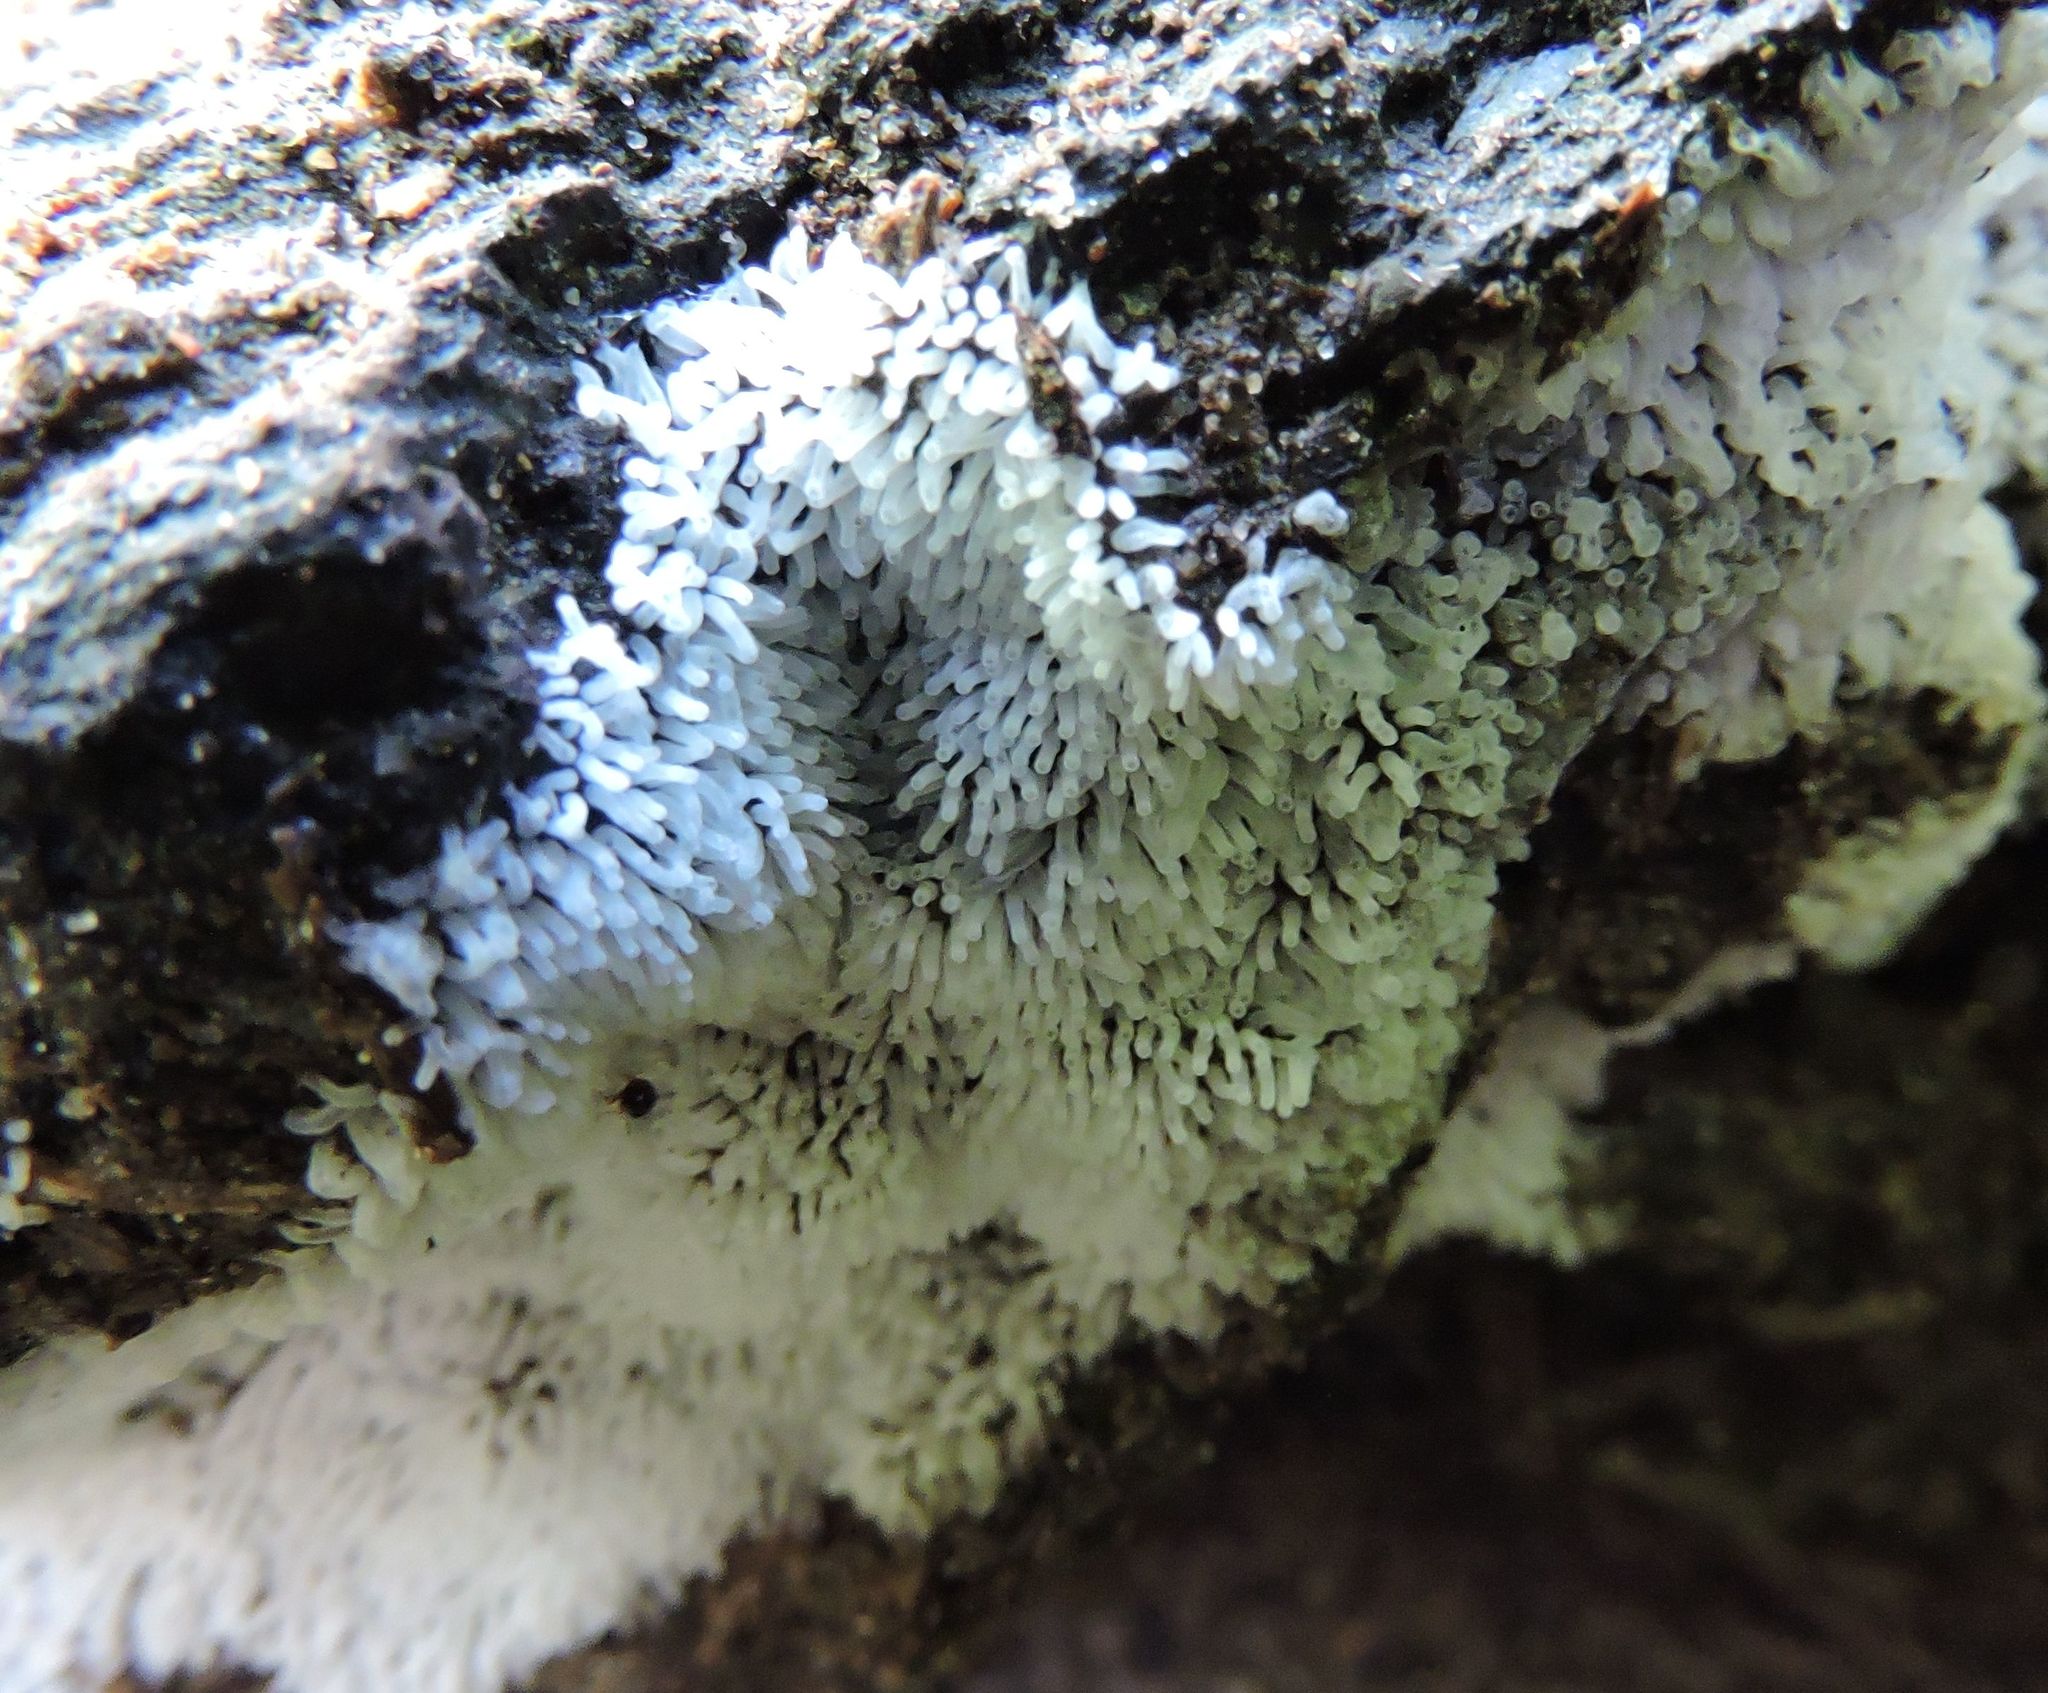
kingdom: Protozoa
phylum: Mycetozoa
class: Protosteliomycetes
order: Ceratiomyxales
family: Ceratiomyxaceae
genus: Ceratiomyxa
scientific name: Ceratiomyxa fruticulosa
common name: Honeycomb coral slime mold
